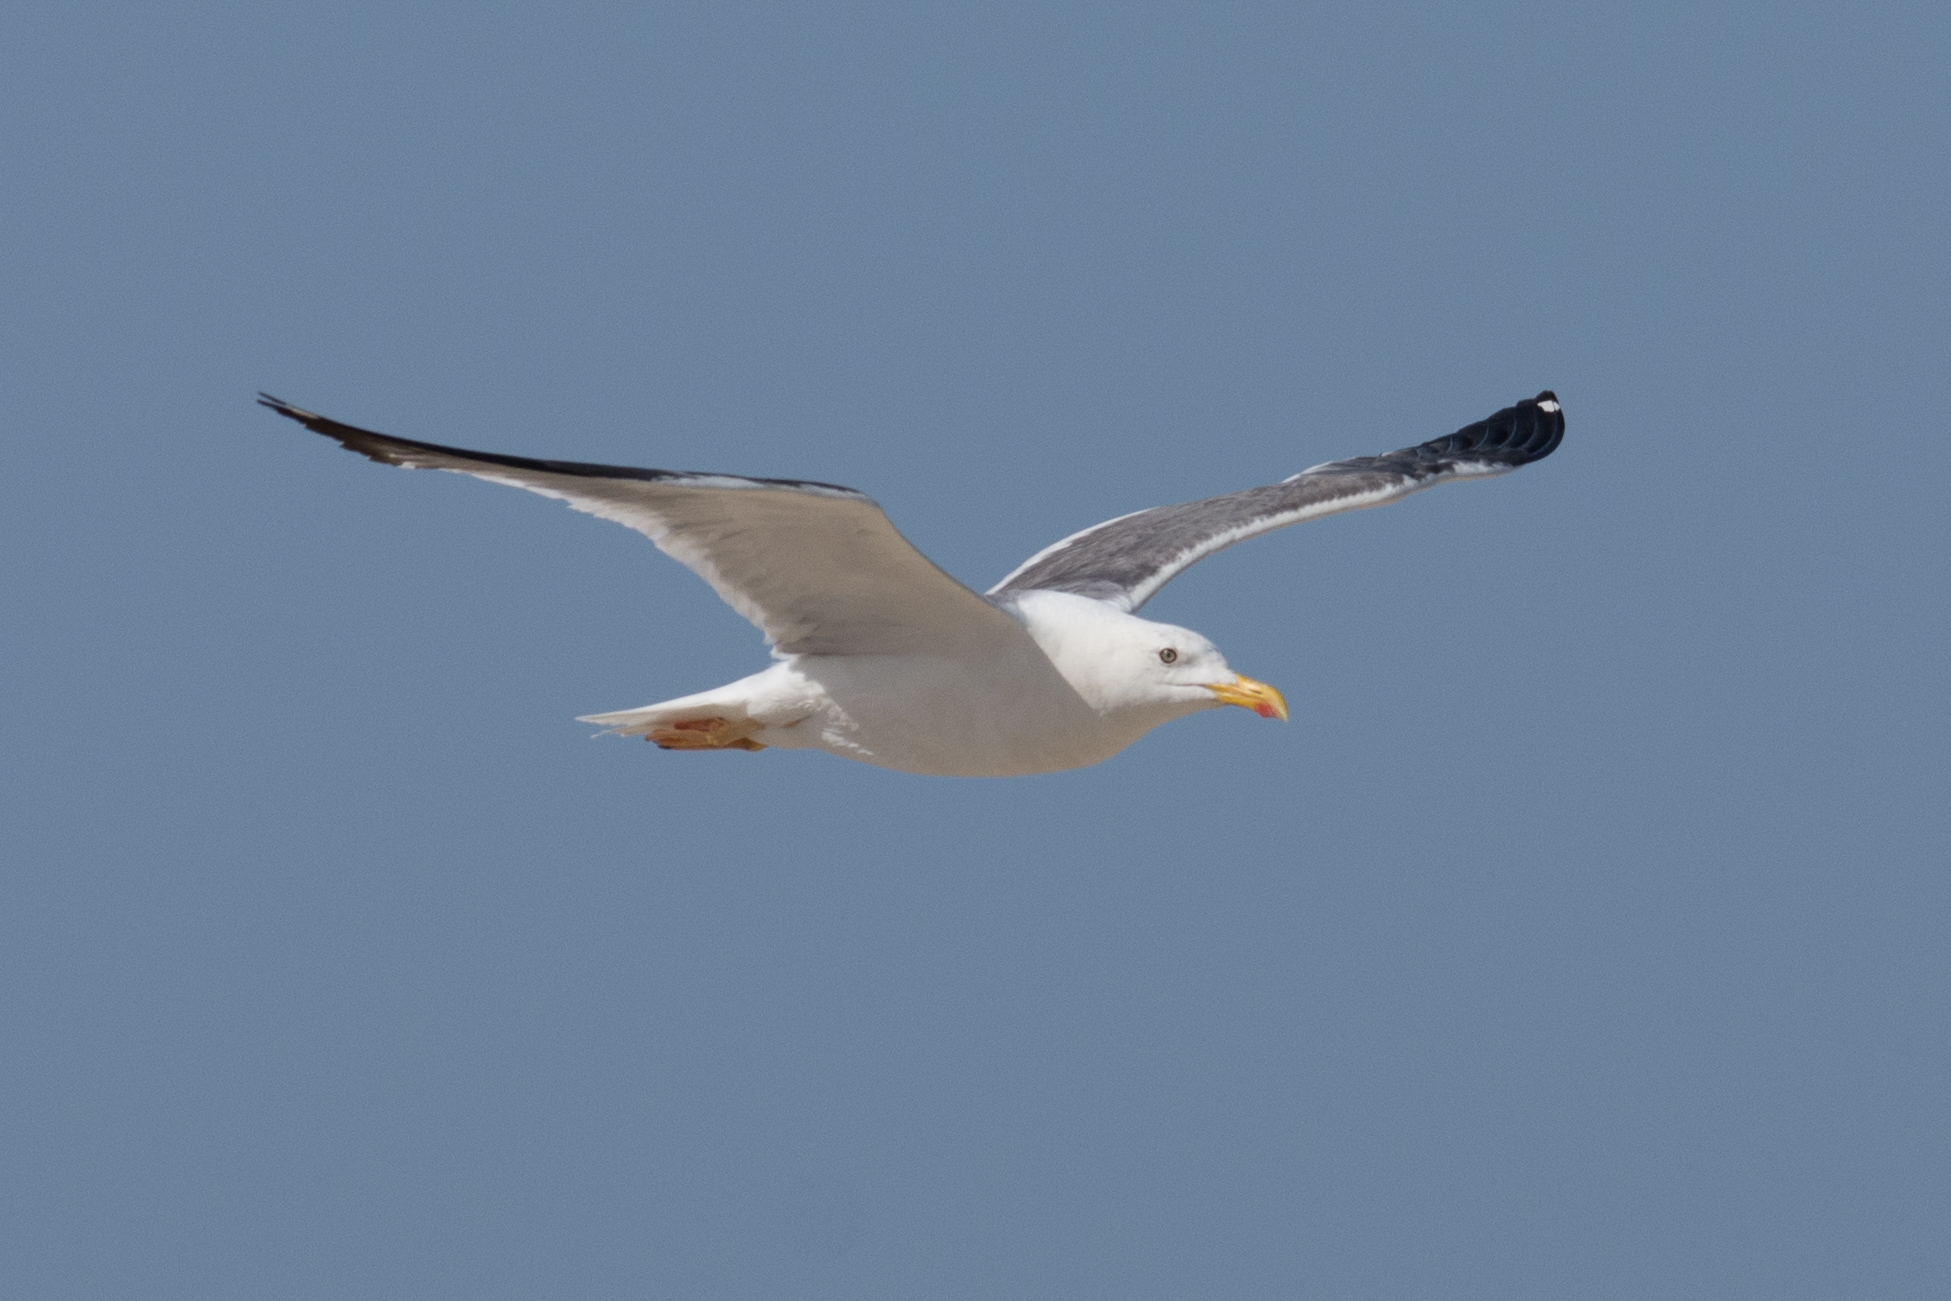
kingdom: Animalia
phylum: Chordata
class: Aves
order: Charadriiformes
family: Laridae
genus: Larus
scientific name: Larus fuscus
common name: Lesser black-backed gull
